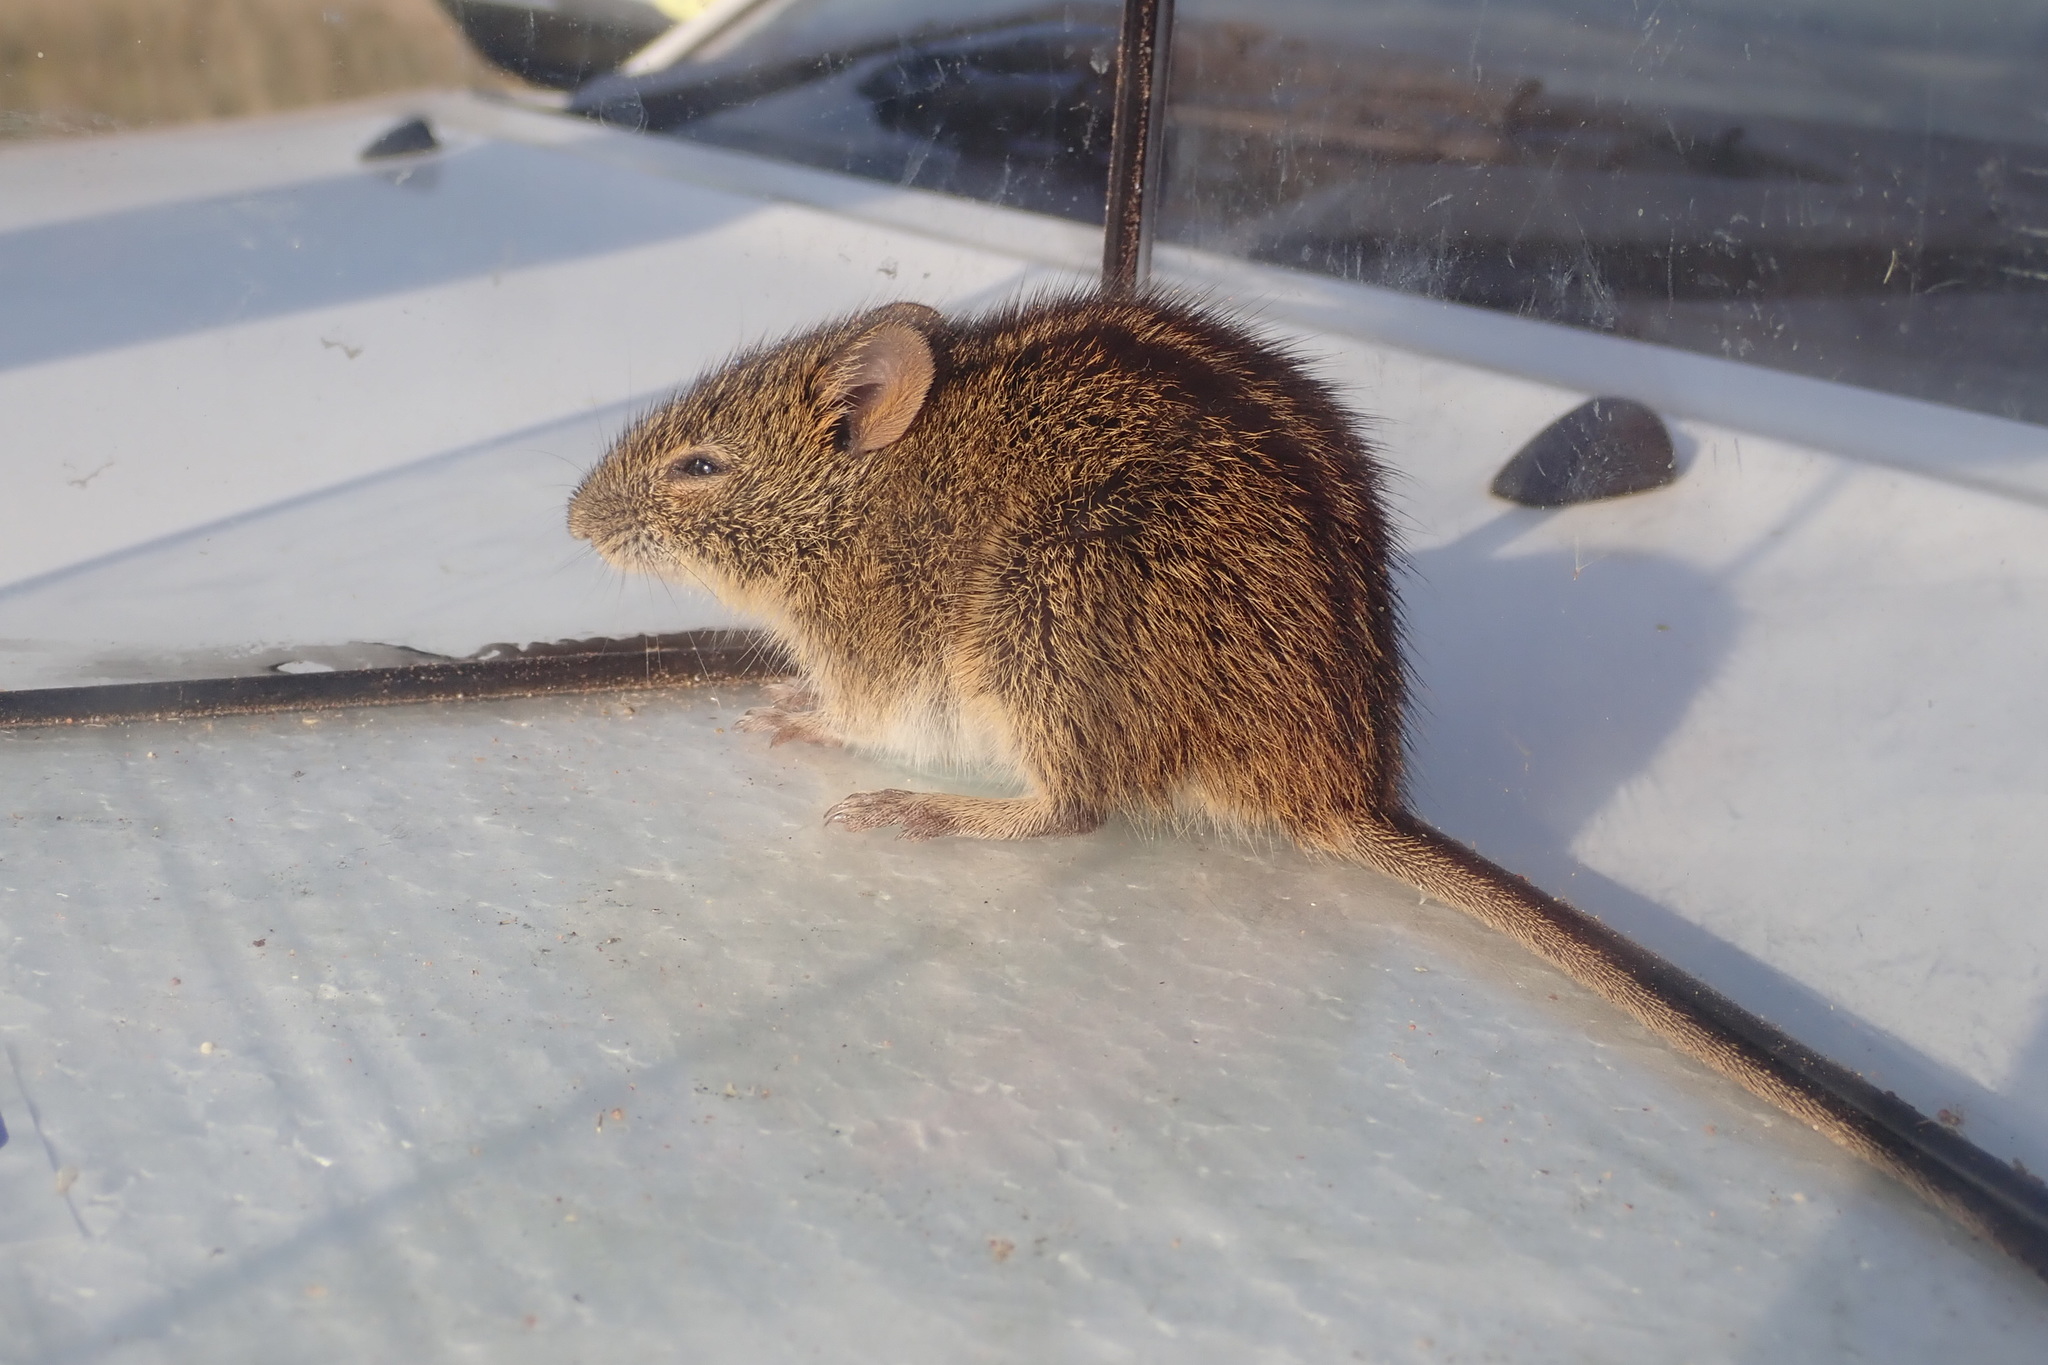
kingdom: Animalia
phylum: Chordata
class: Mammalia
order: Rodentia
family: Muridae
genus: Rhabdomys
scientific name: Rhabdomys dilectus
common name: Mesic four-striped grass rat
